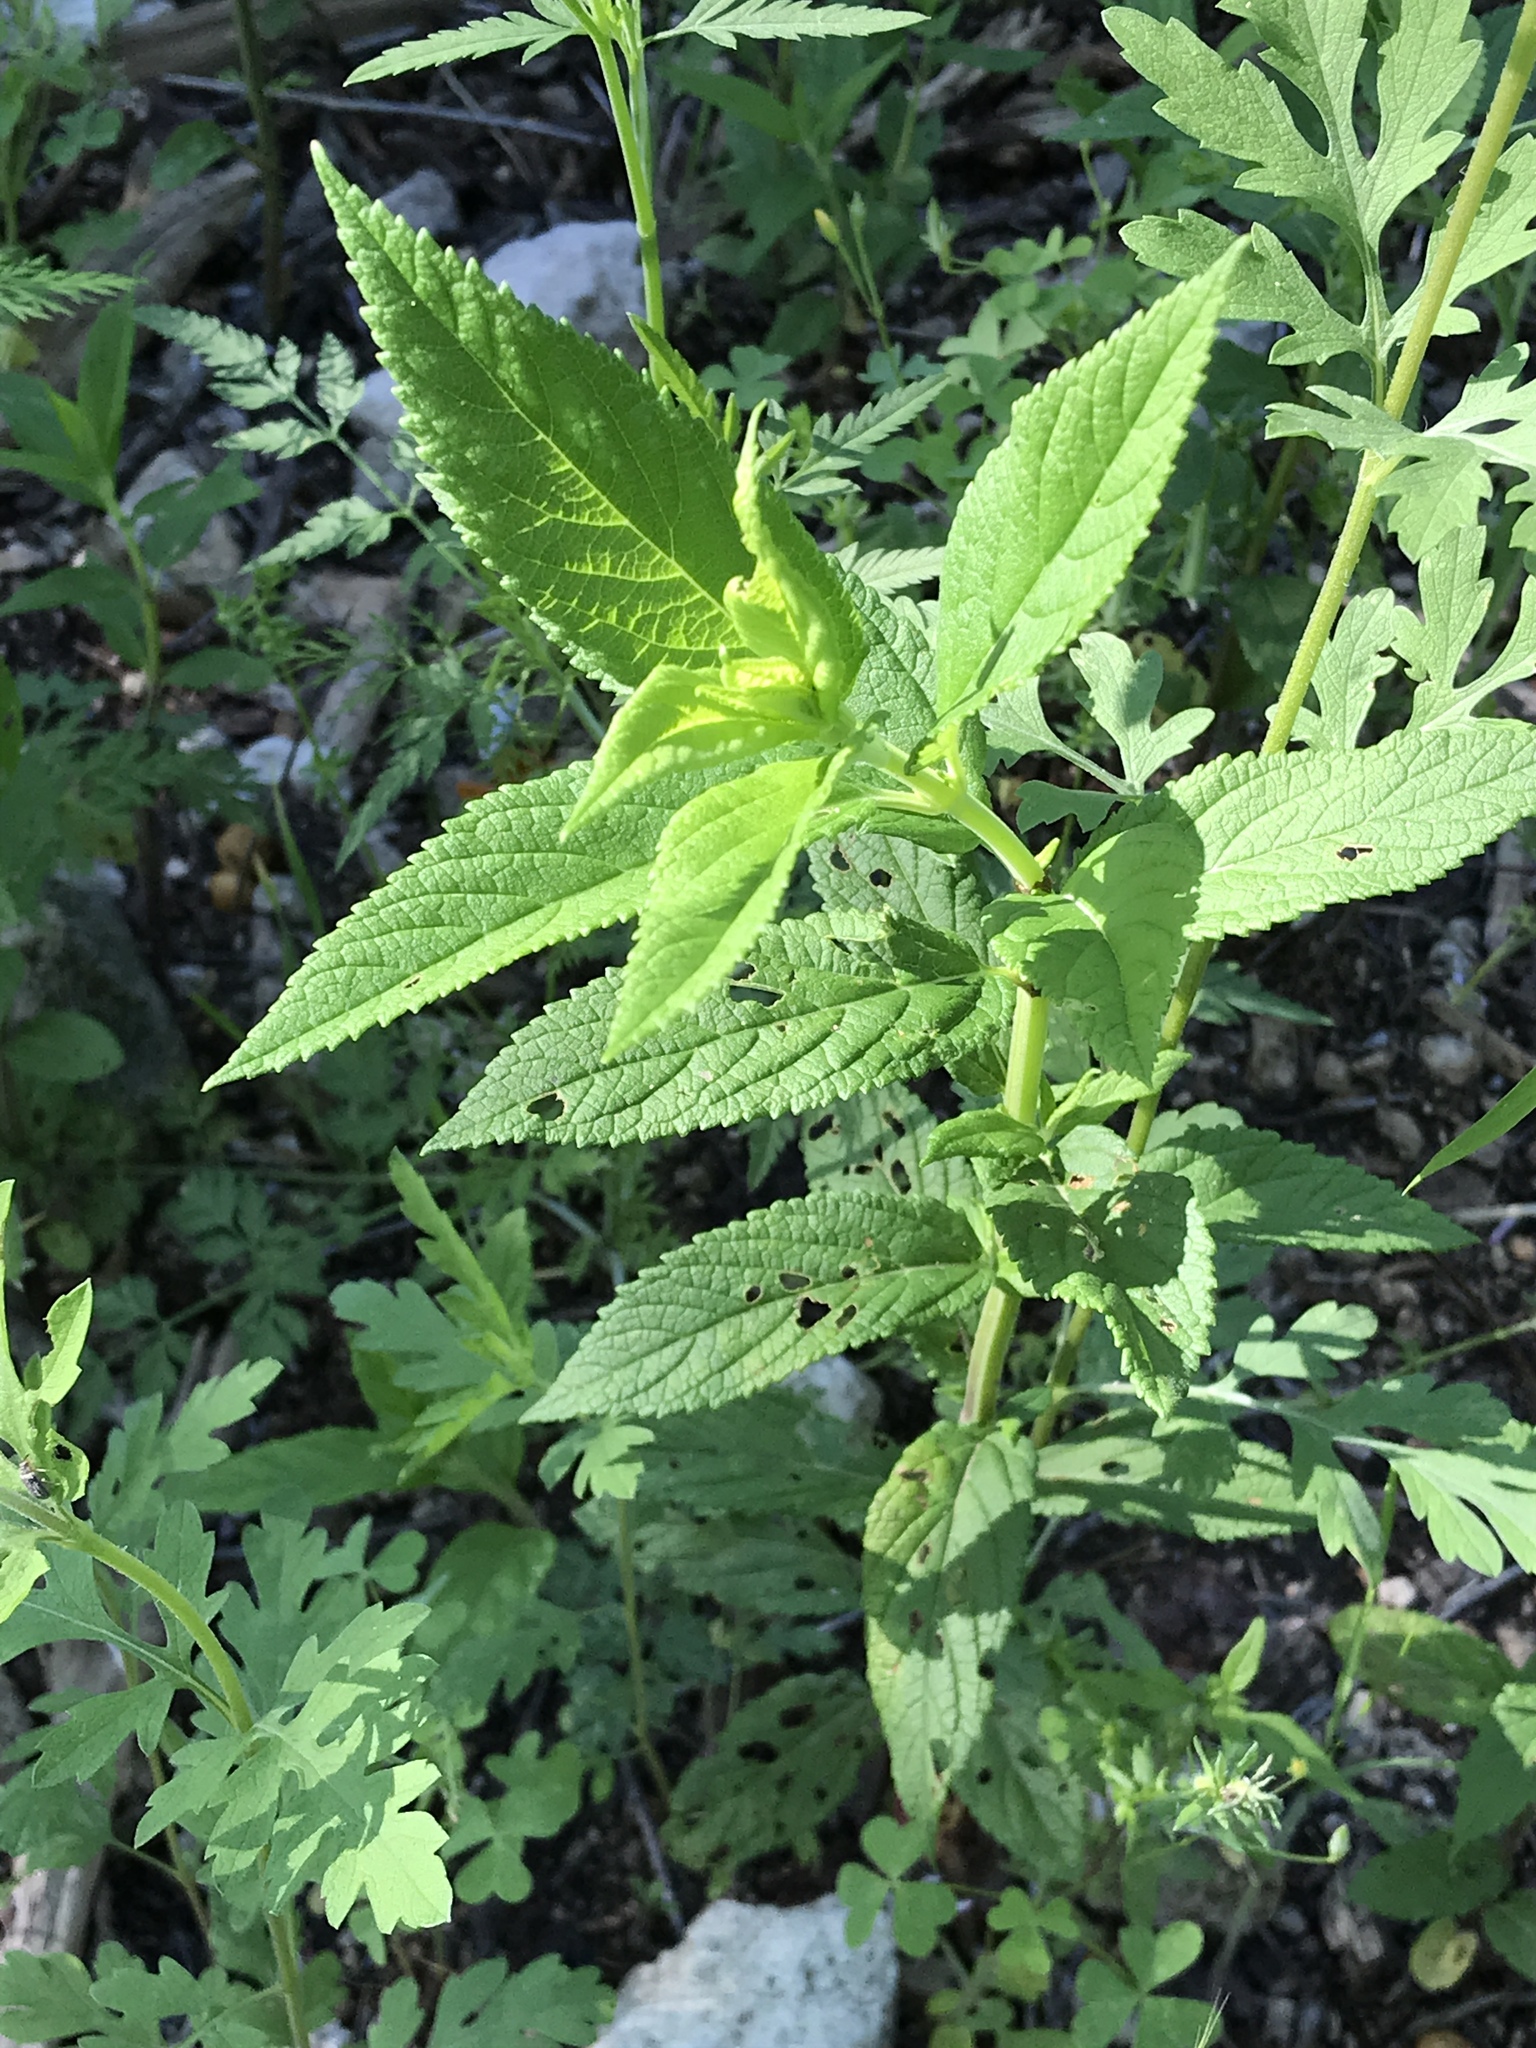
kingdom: Plantae
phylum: Tracheophyta
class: Magnoliopsida
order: Lamiales
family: Lamiaceae
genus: Teucrium
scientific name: Teucrium canadense
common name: American germander
